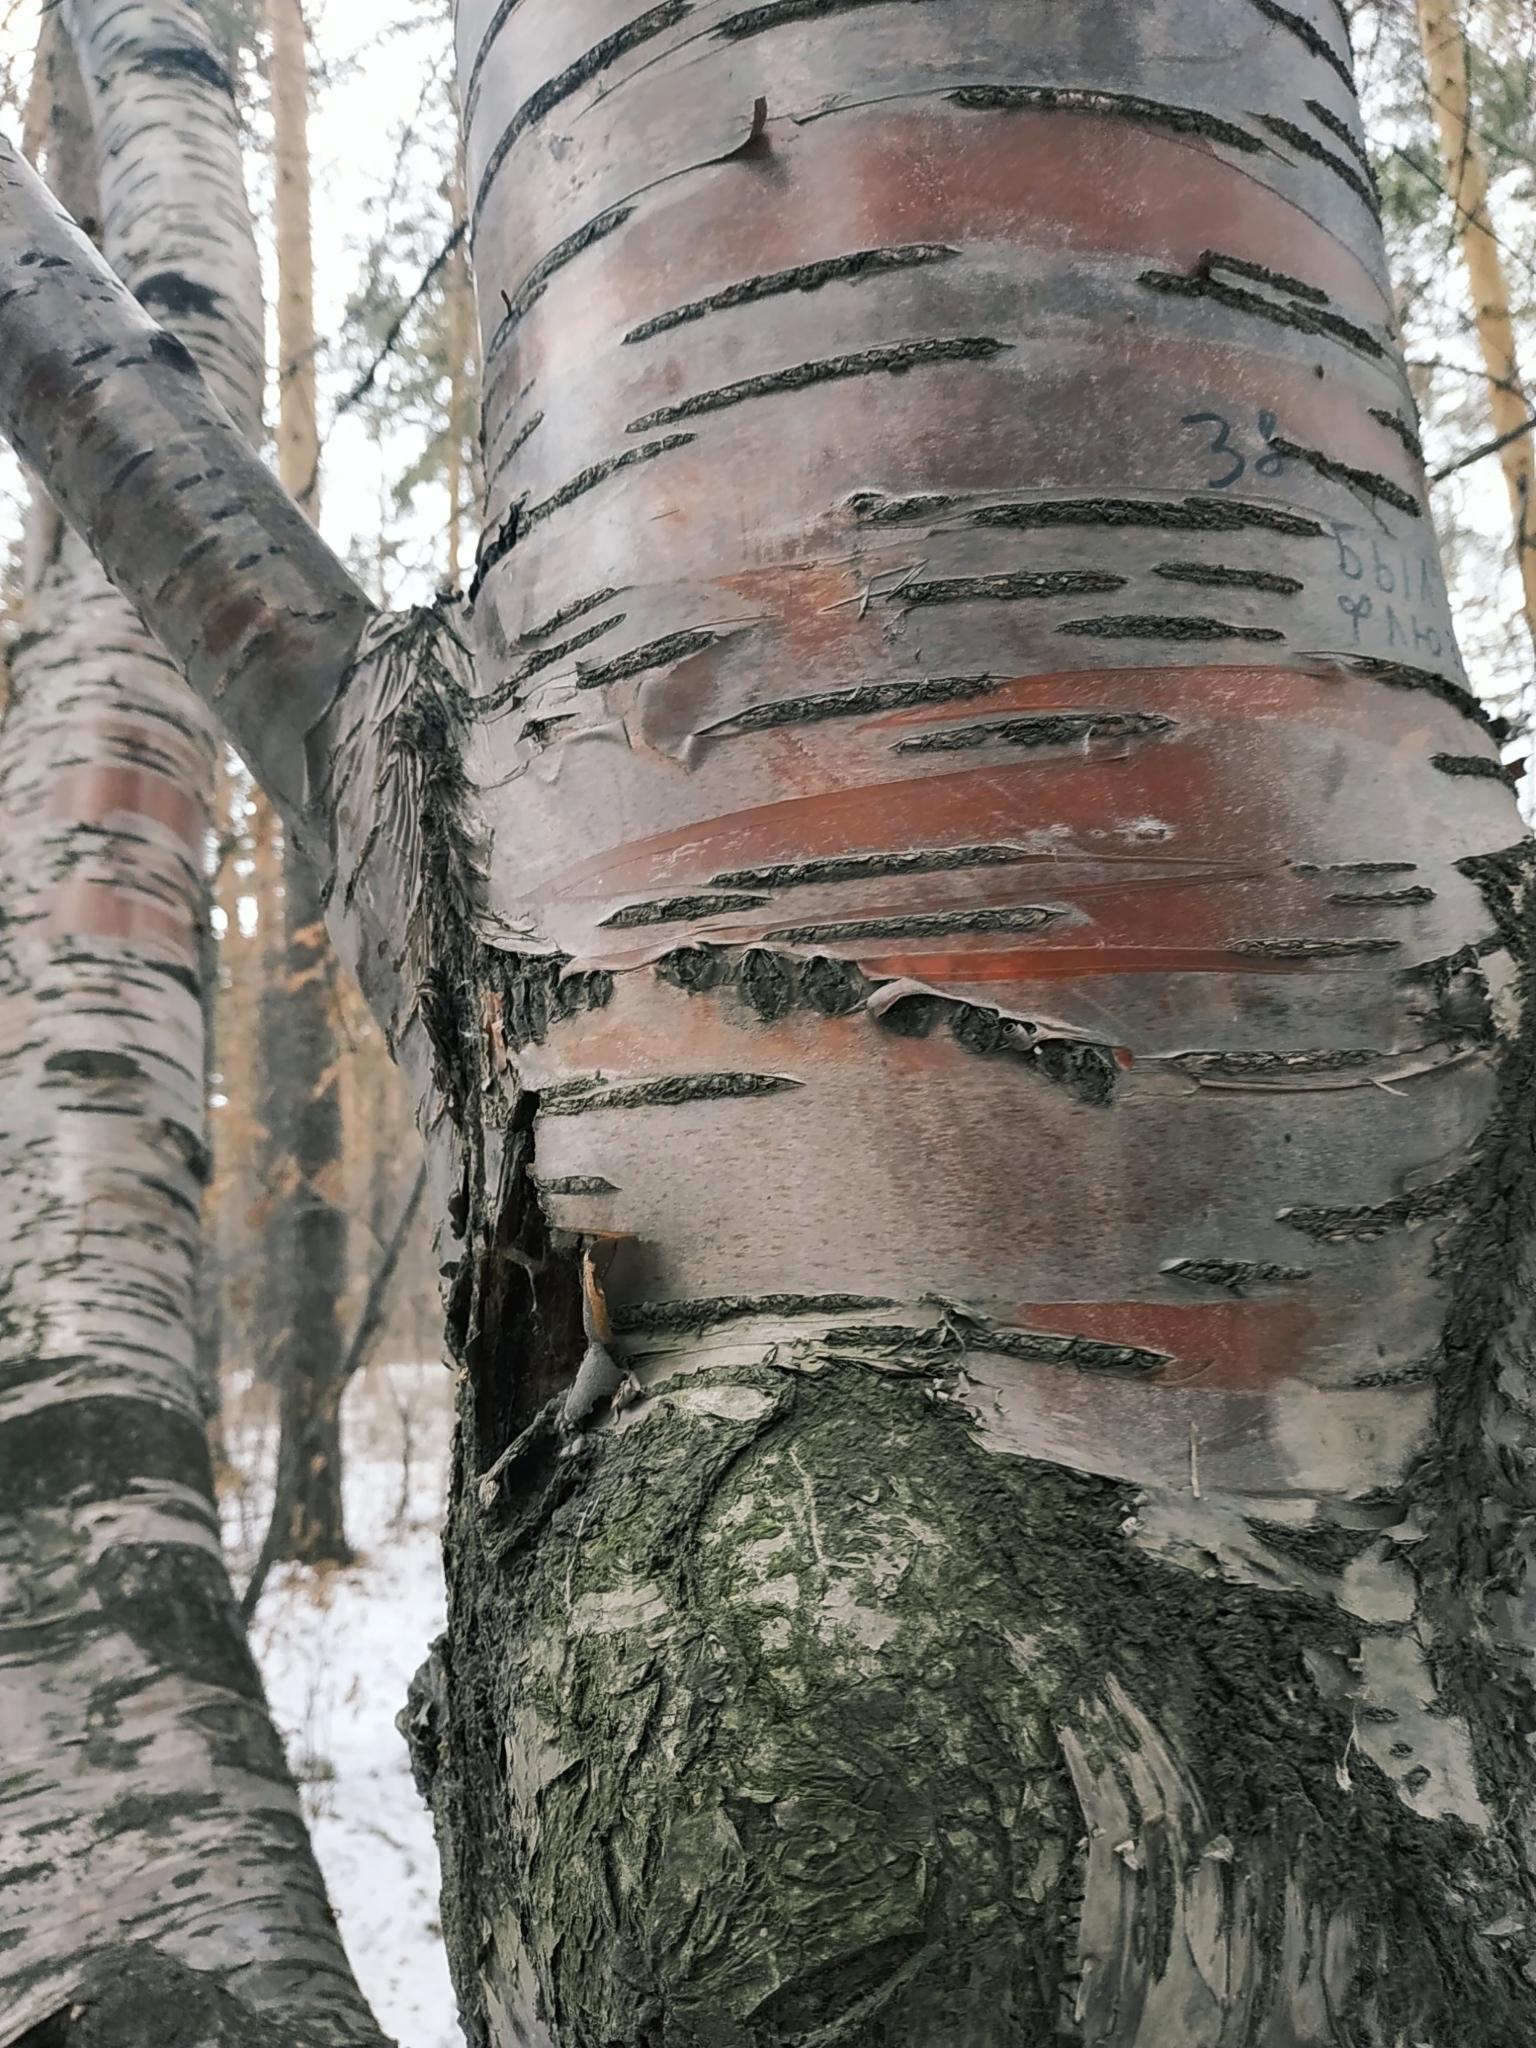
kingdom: Plantae
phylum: Tracheophyta
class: Magnoliopsida
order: Rosales
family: Rosaceae
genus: Prunus
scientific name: Prunus glandulifolia
